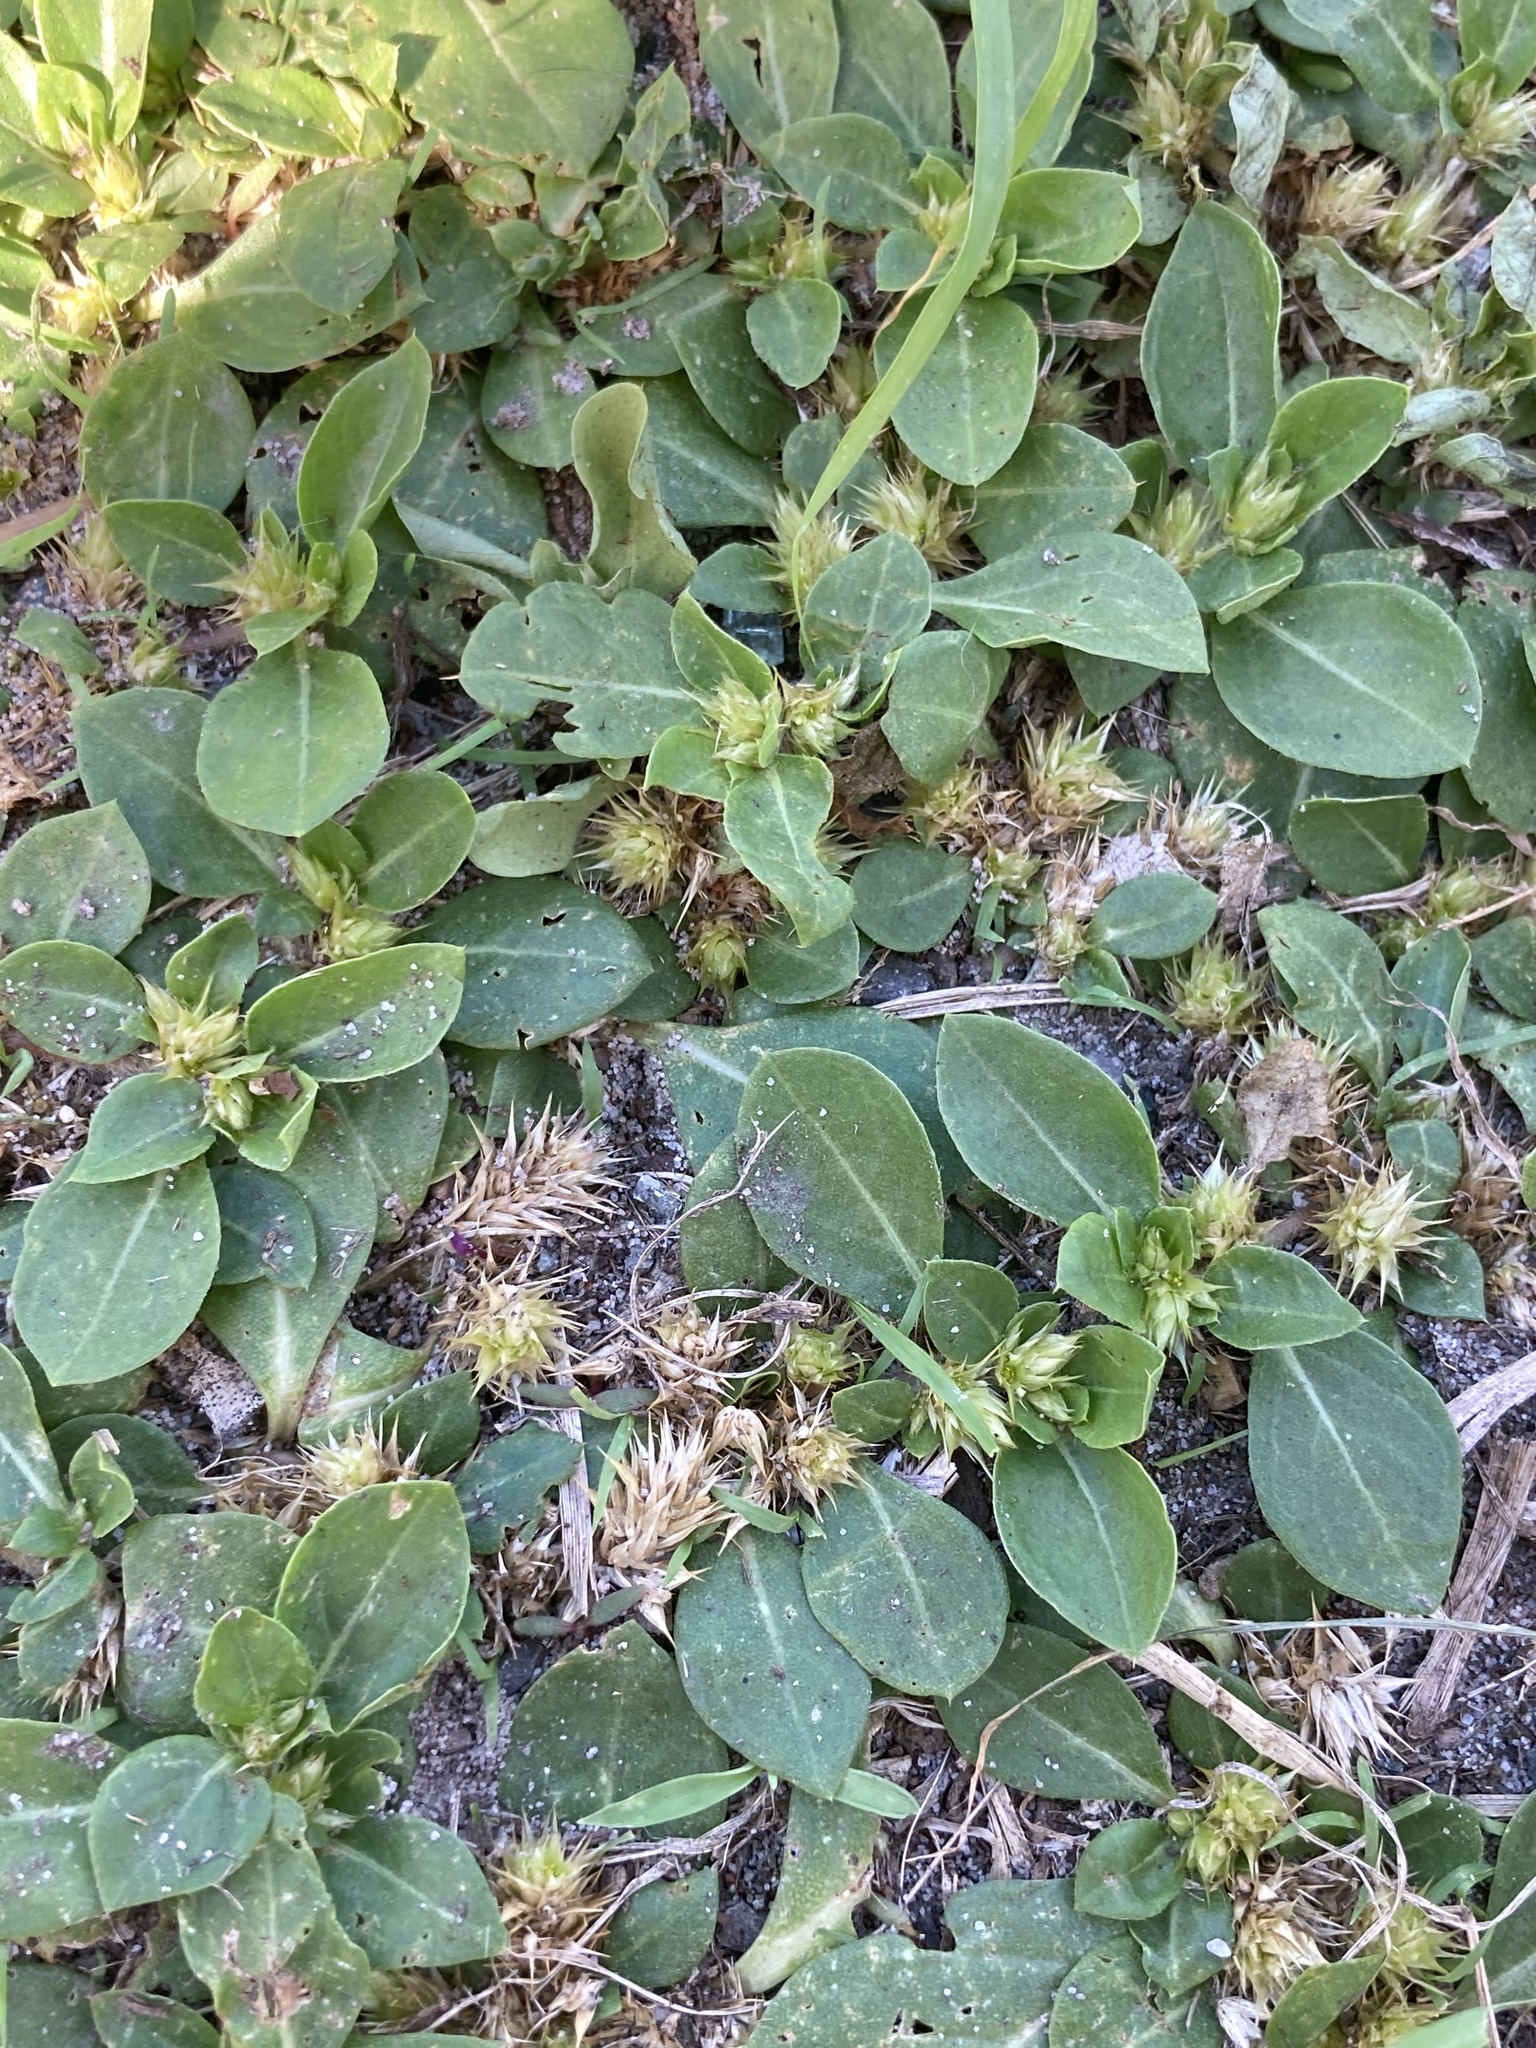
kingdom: Plantae
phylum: Tracheophyta
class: Magnoliopsida
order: Caryophyllales
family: Amaranthaceae
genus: Alternanthera
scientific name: Alternanthera pungens
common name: Khakiweed
